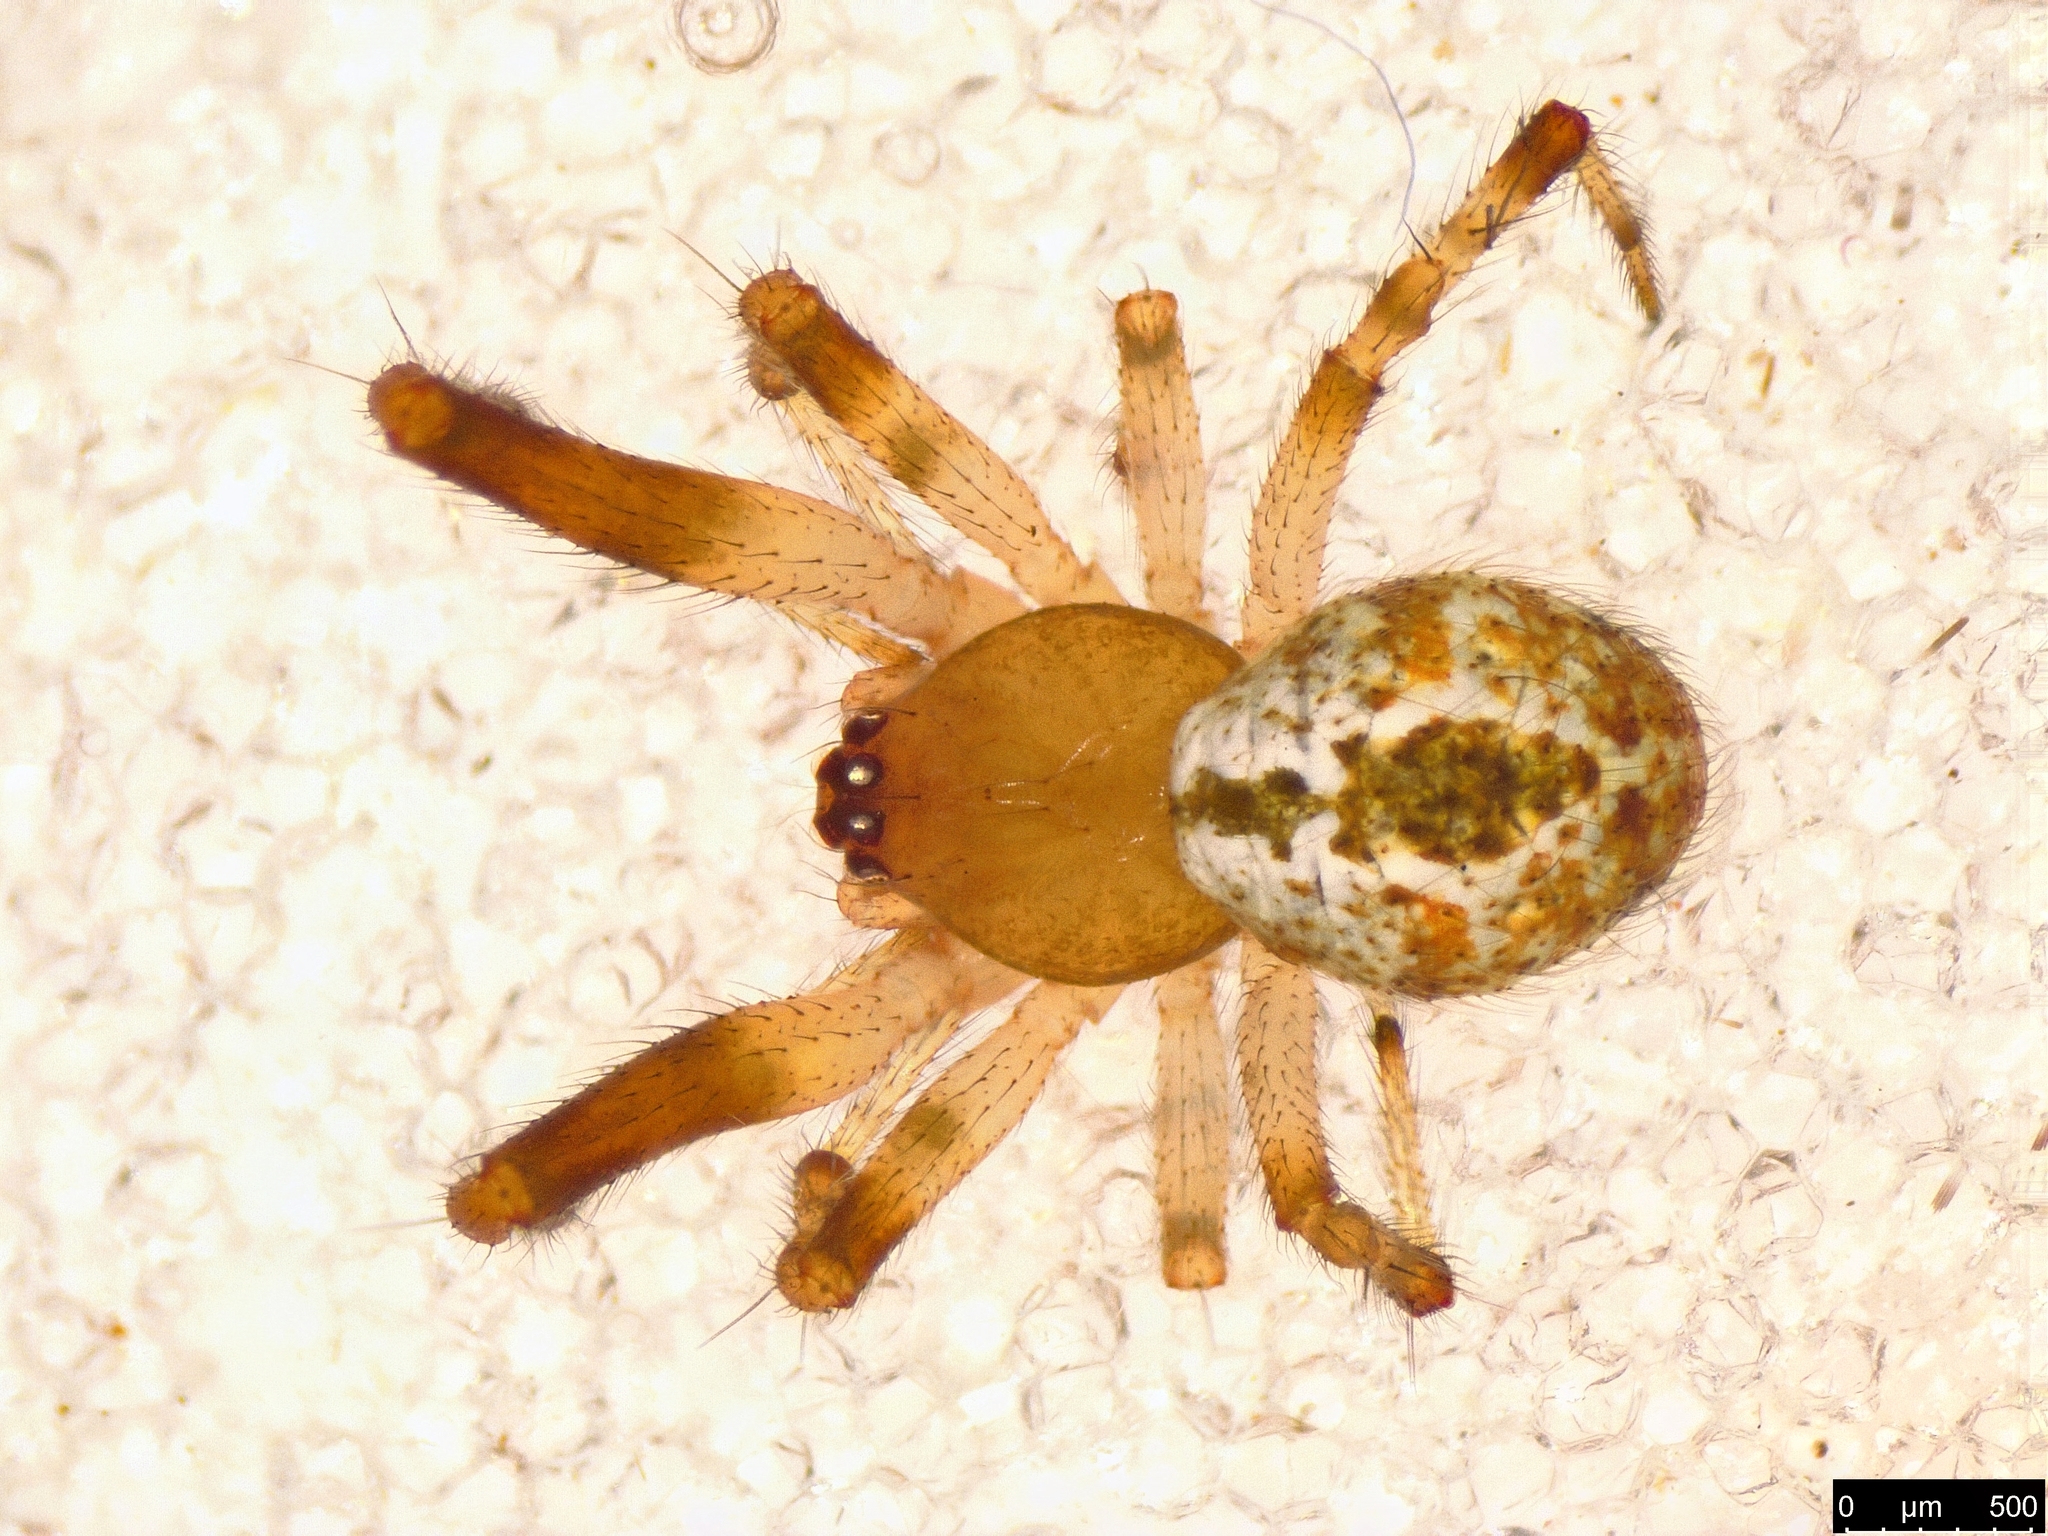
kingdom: Animalia
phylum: Arthropoda
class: Arachnida
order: Araneae
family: Theridiidae
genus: Cryptachaea
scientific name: Cryptachaea veruculata
